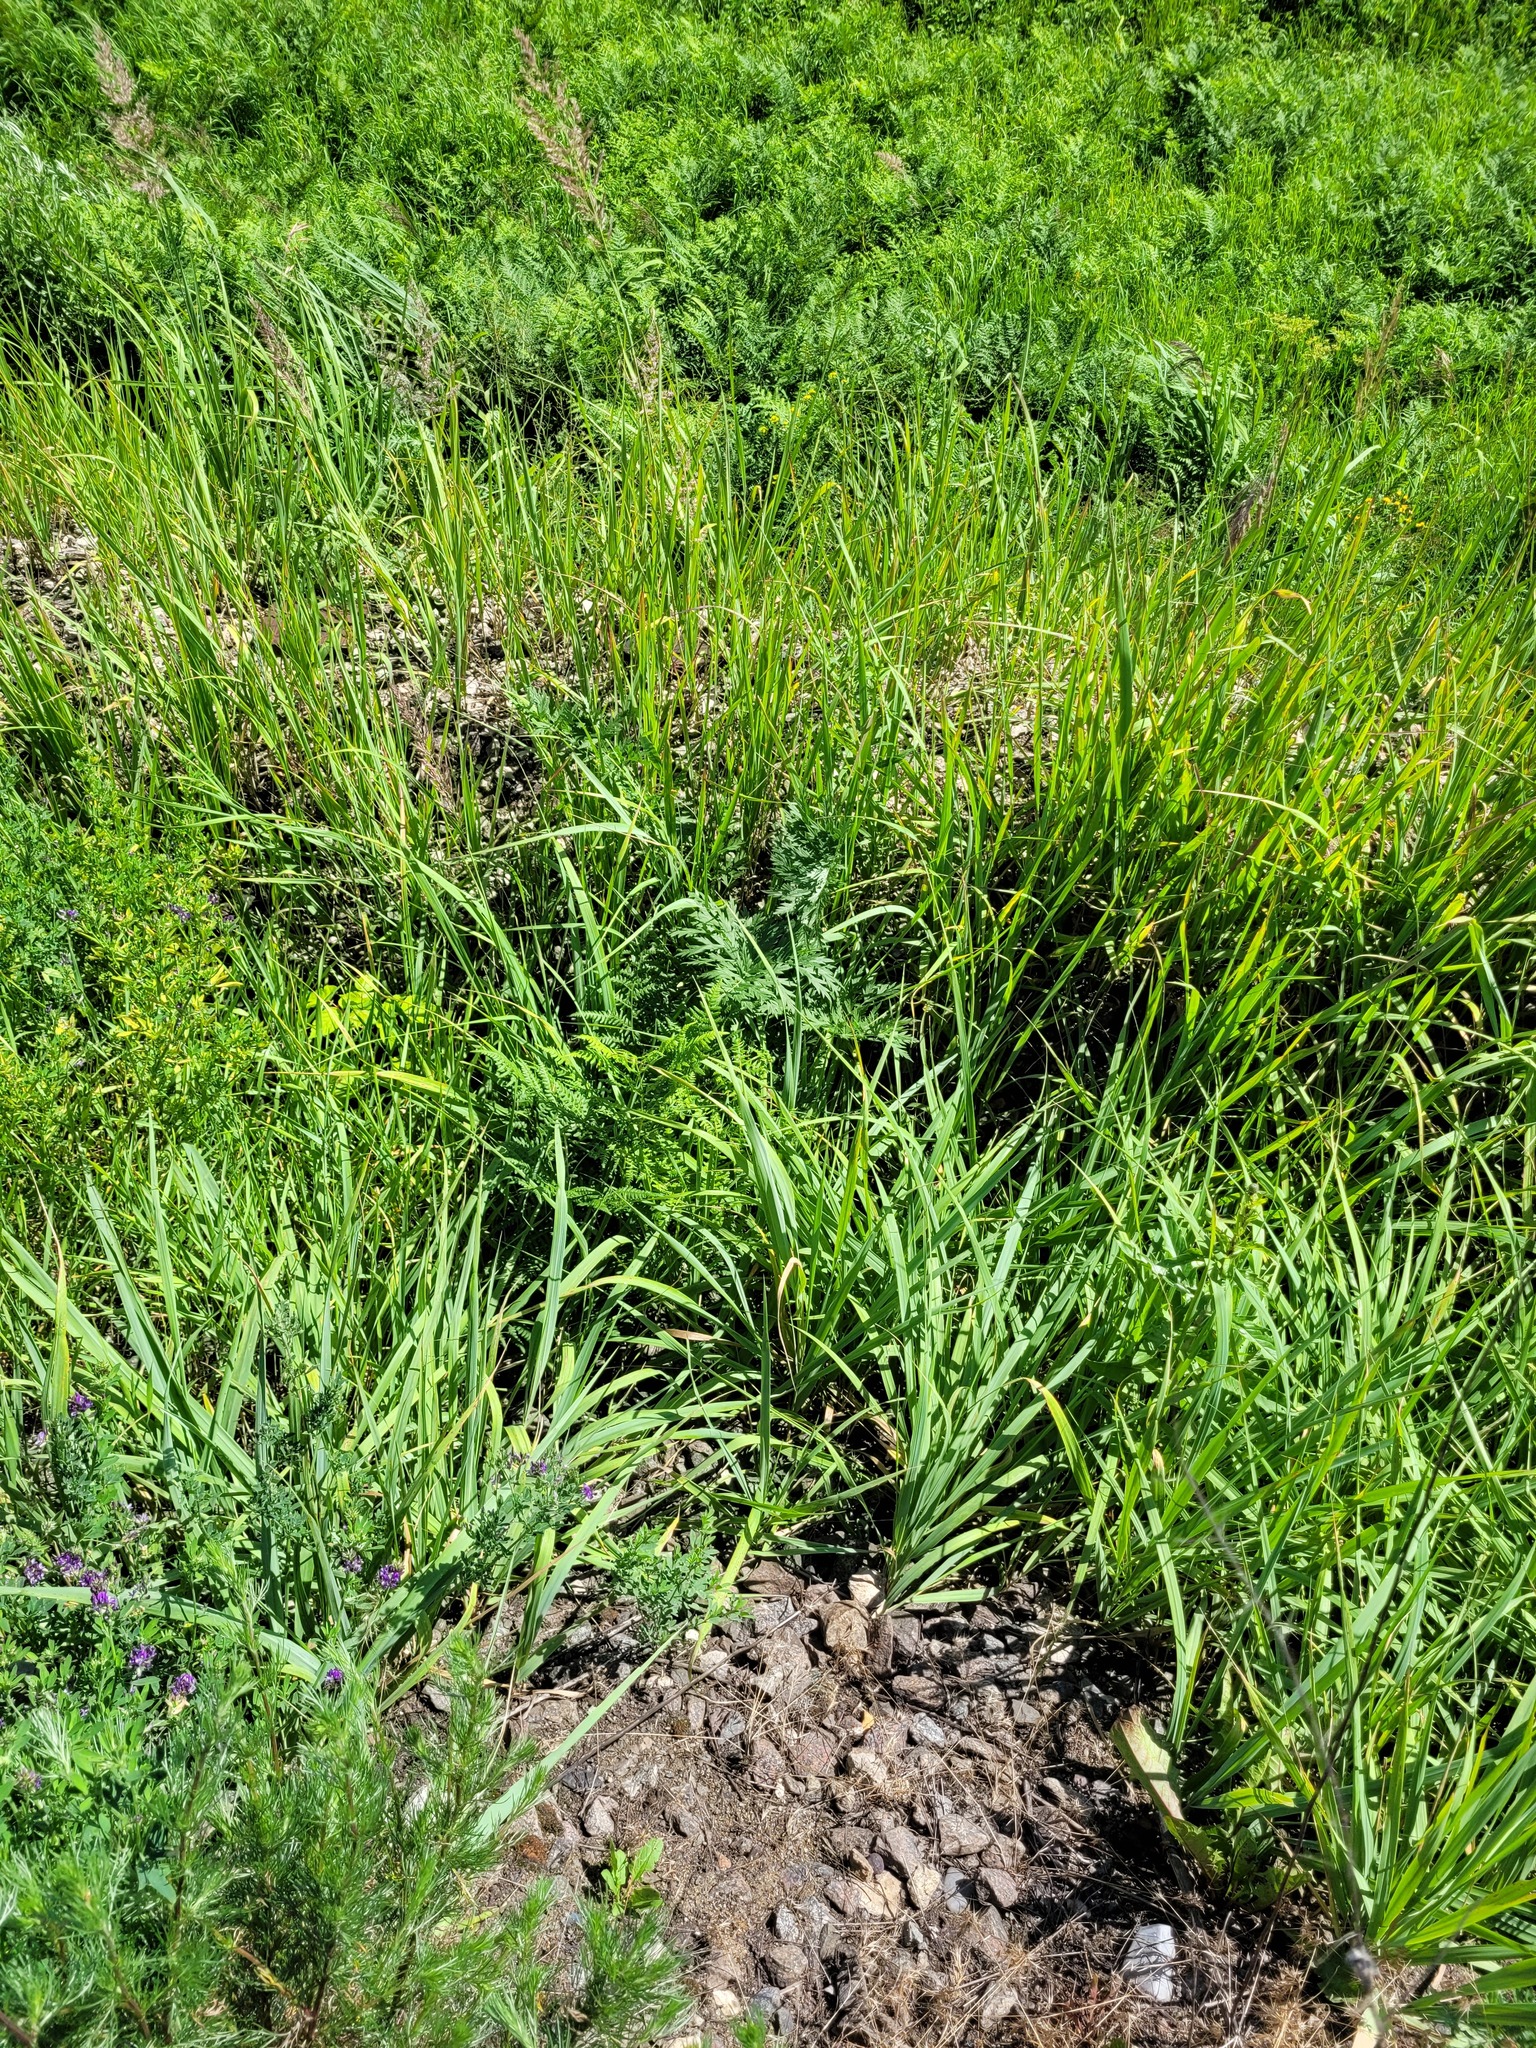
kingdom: Plantae
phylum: Tracheophyta
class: Polypodiopsida
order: Polypodiales
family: Dennstaedtiaceae
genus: Pteridium
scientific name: Pteridium aquilinum
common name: Bracken
